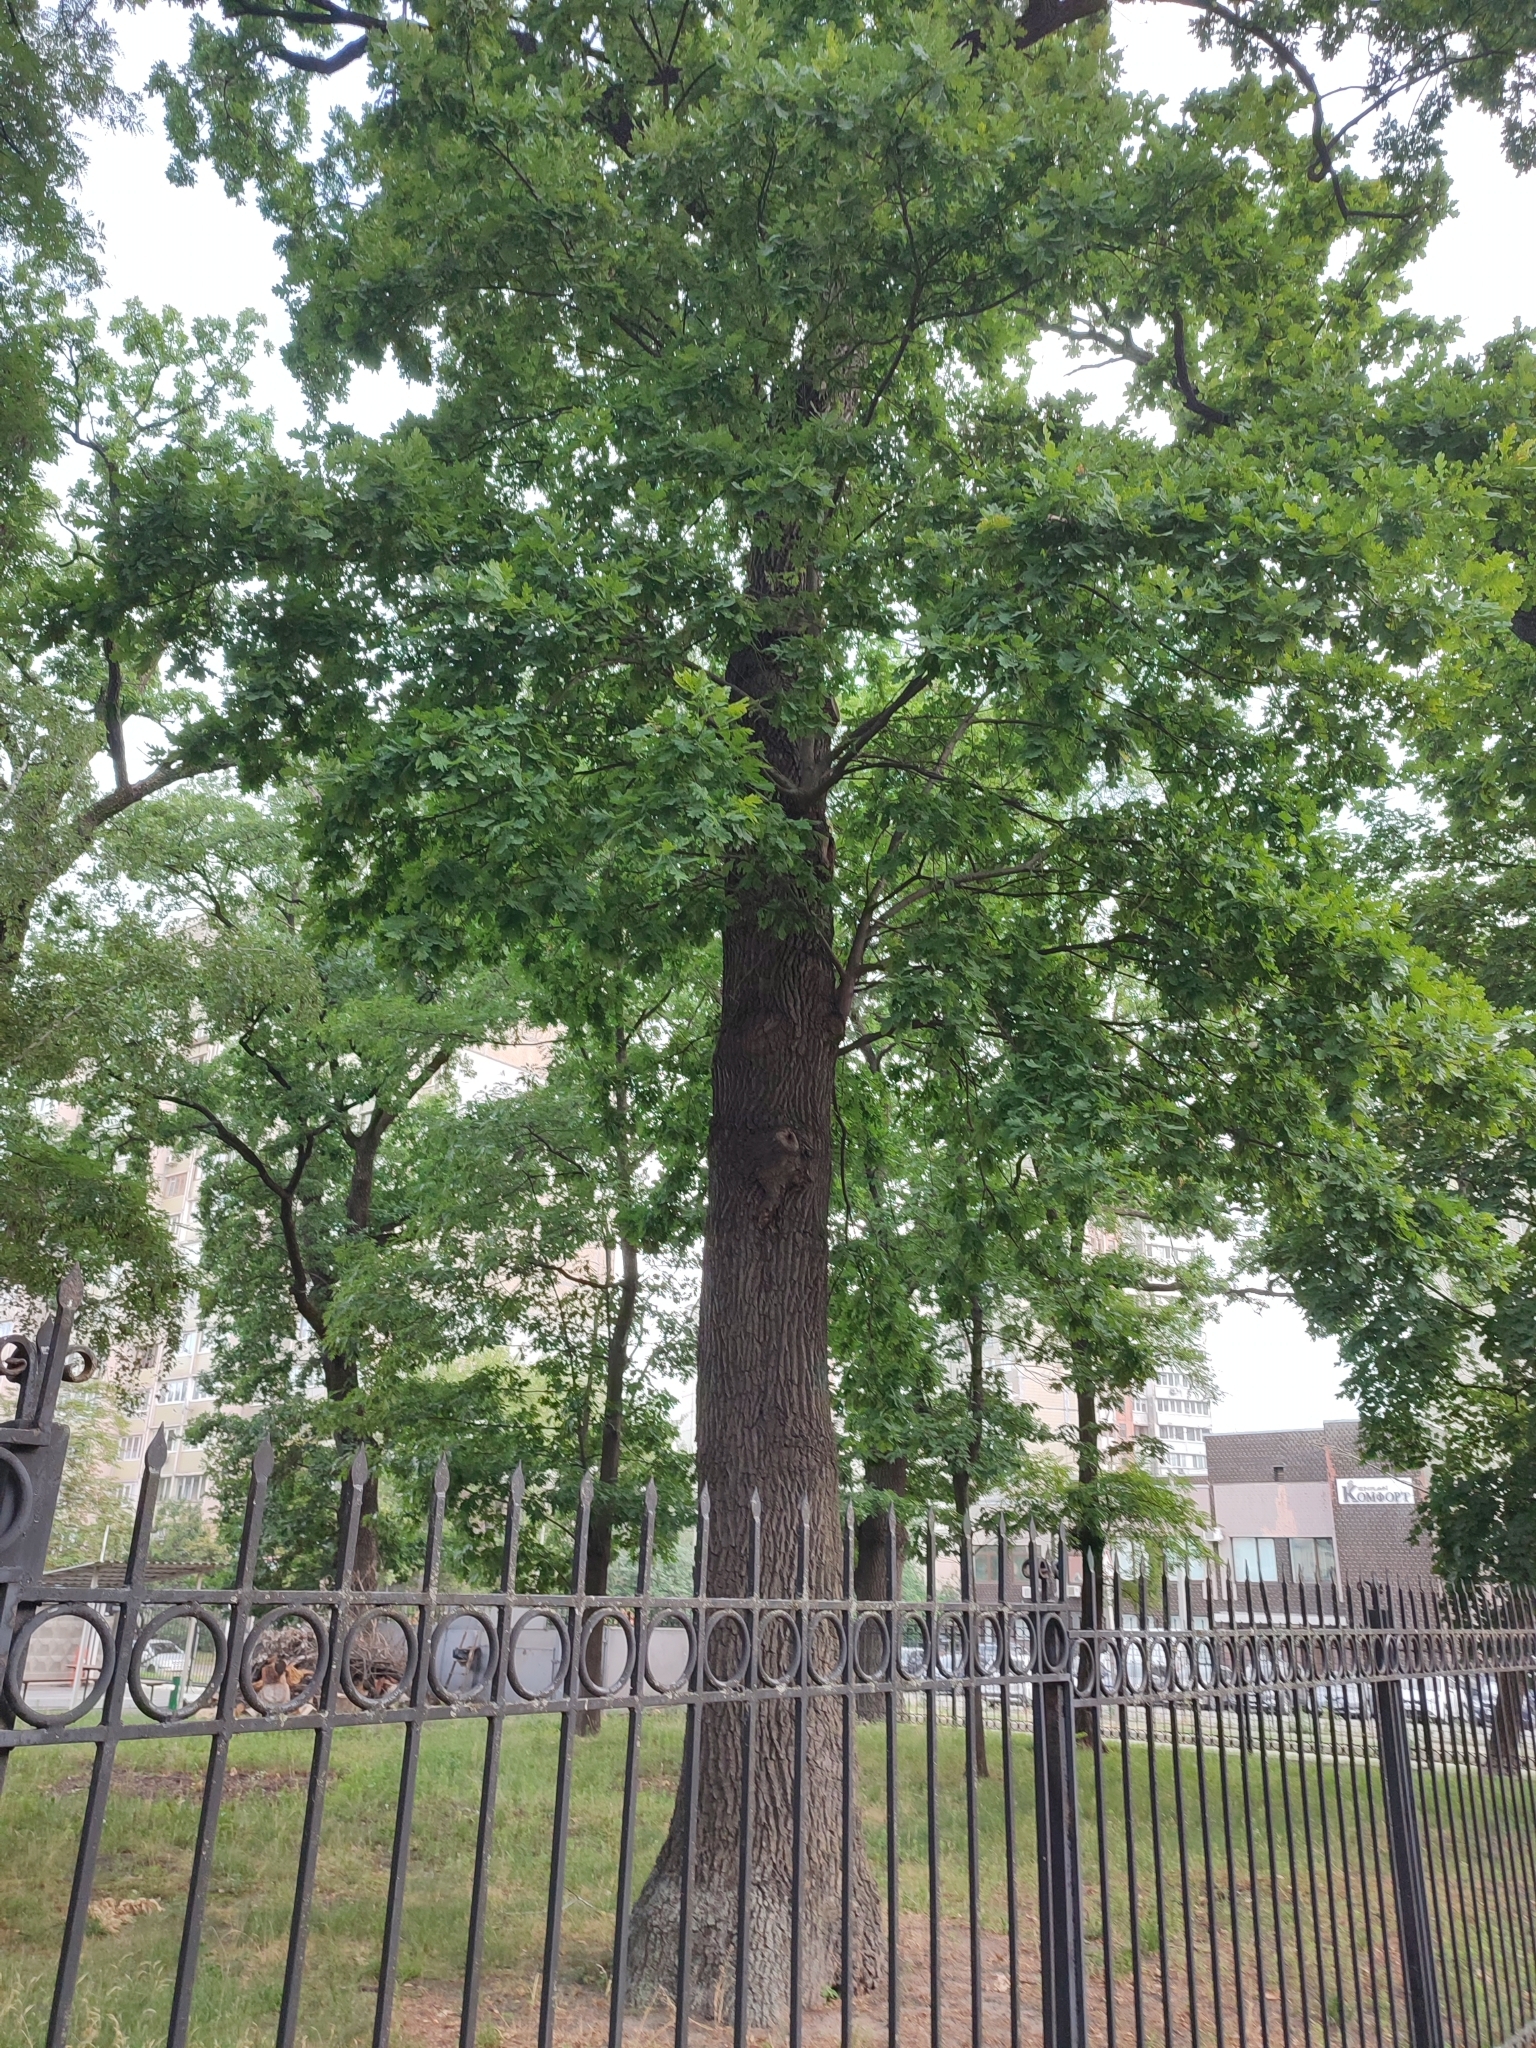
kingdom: Plantae
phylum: Tracheophyta
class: Magnoliopsida
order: Fagales
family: Fagaceae
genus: Quercus
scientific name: Quercus robur
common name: Pedunculate oak
